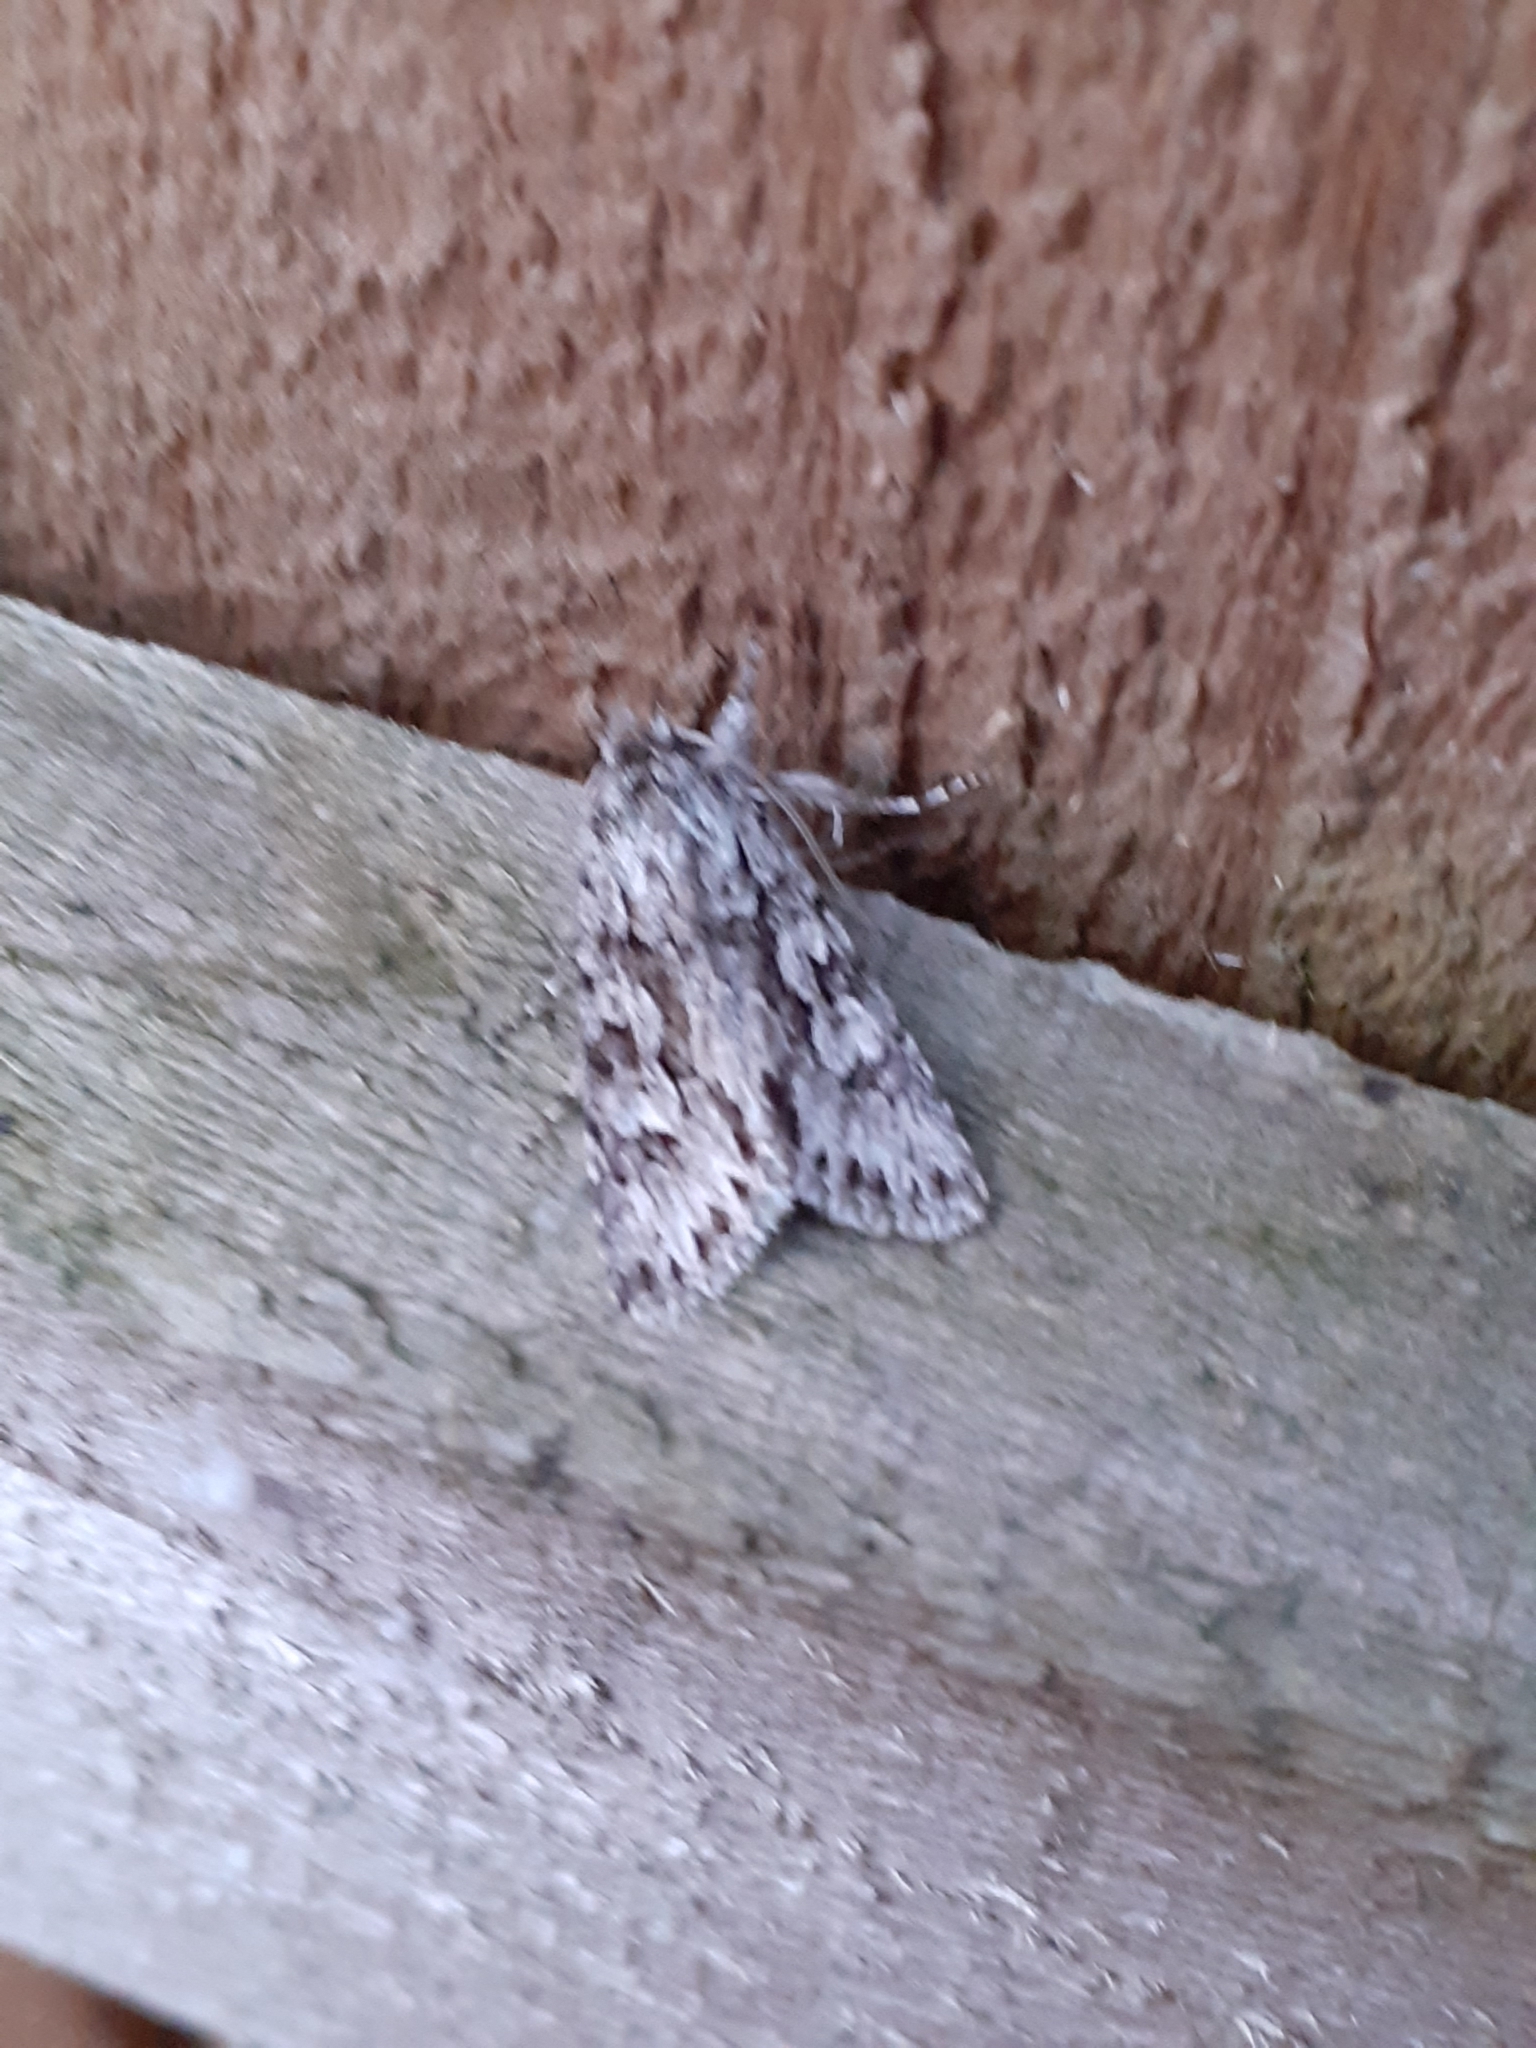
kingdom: Animalia
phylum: Arthropoda
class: Insecta
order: Lepidoptera
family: Noctuidae
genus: Xylocampa
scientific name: Xylocampa areola
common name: Early grey
